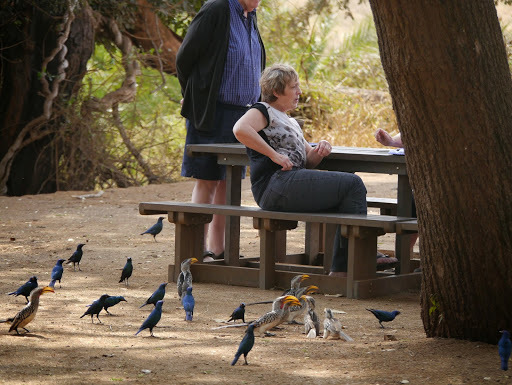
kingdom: Animalia
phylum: Chordata
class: Aves
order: Passeriformes
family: Sturnidae
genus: Lamprotornis
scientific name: Lamprotornis chalybaeus
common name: Greater blue-eared starling
